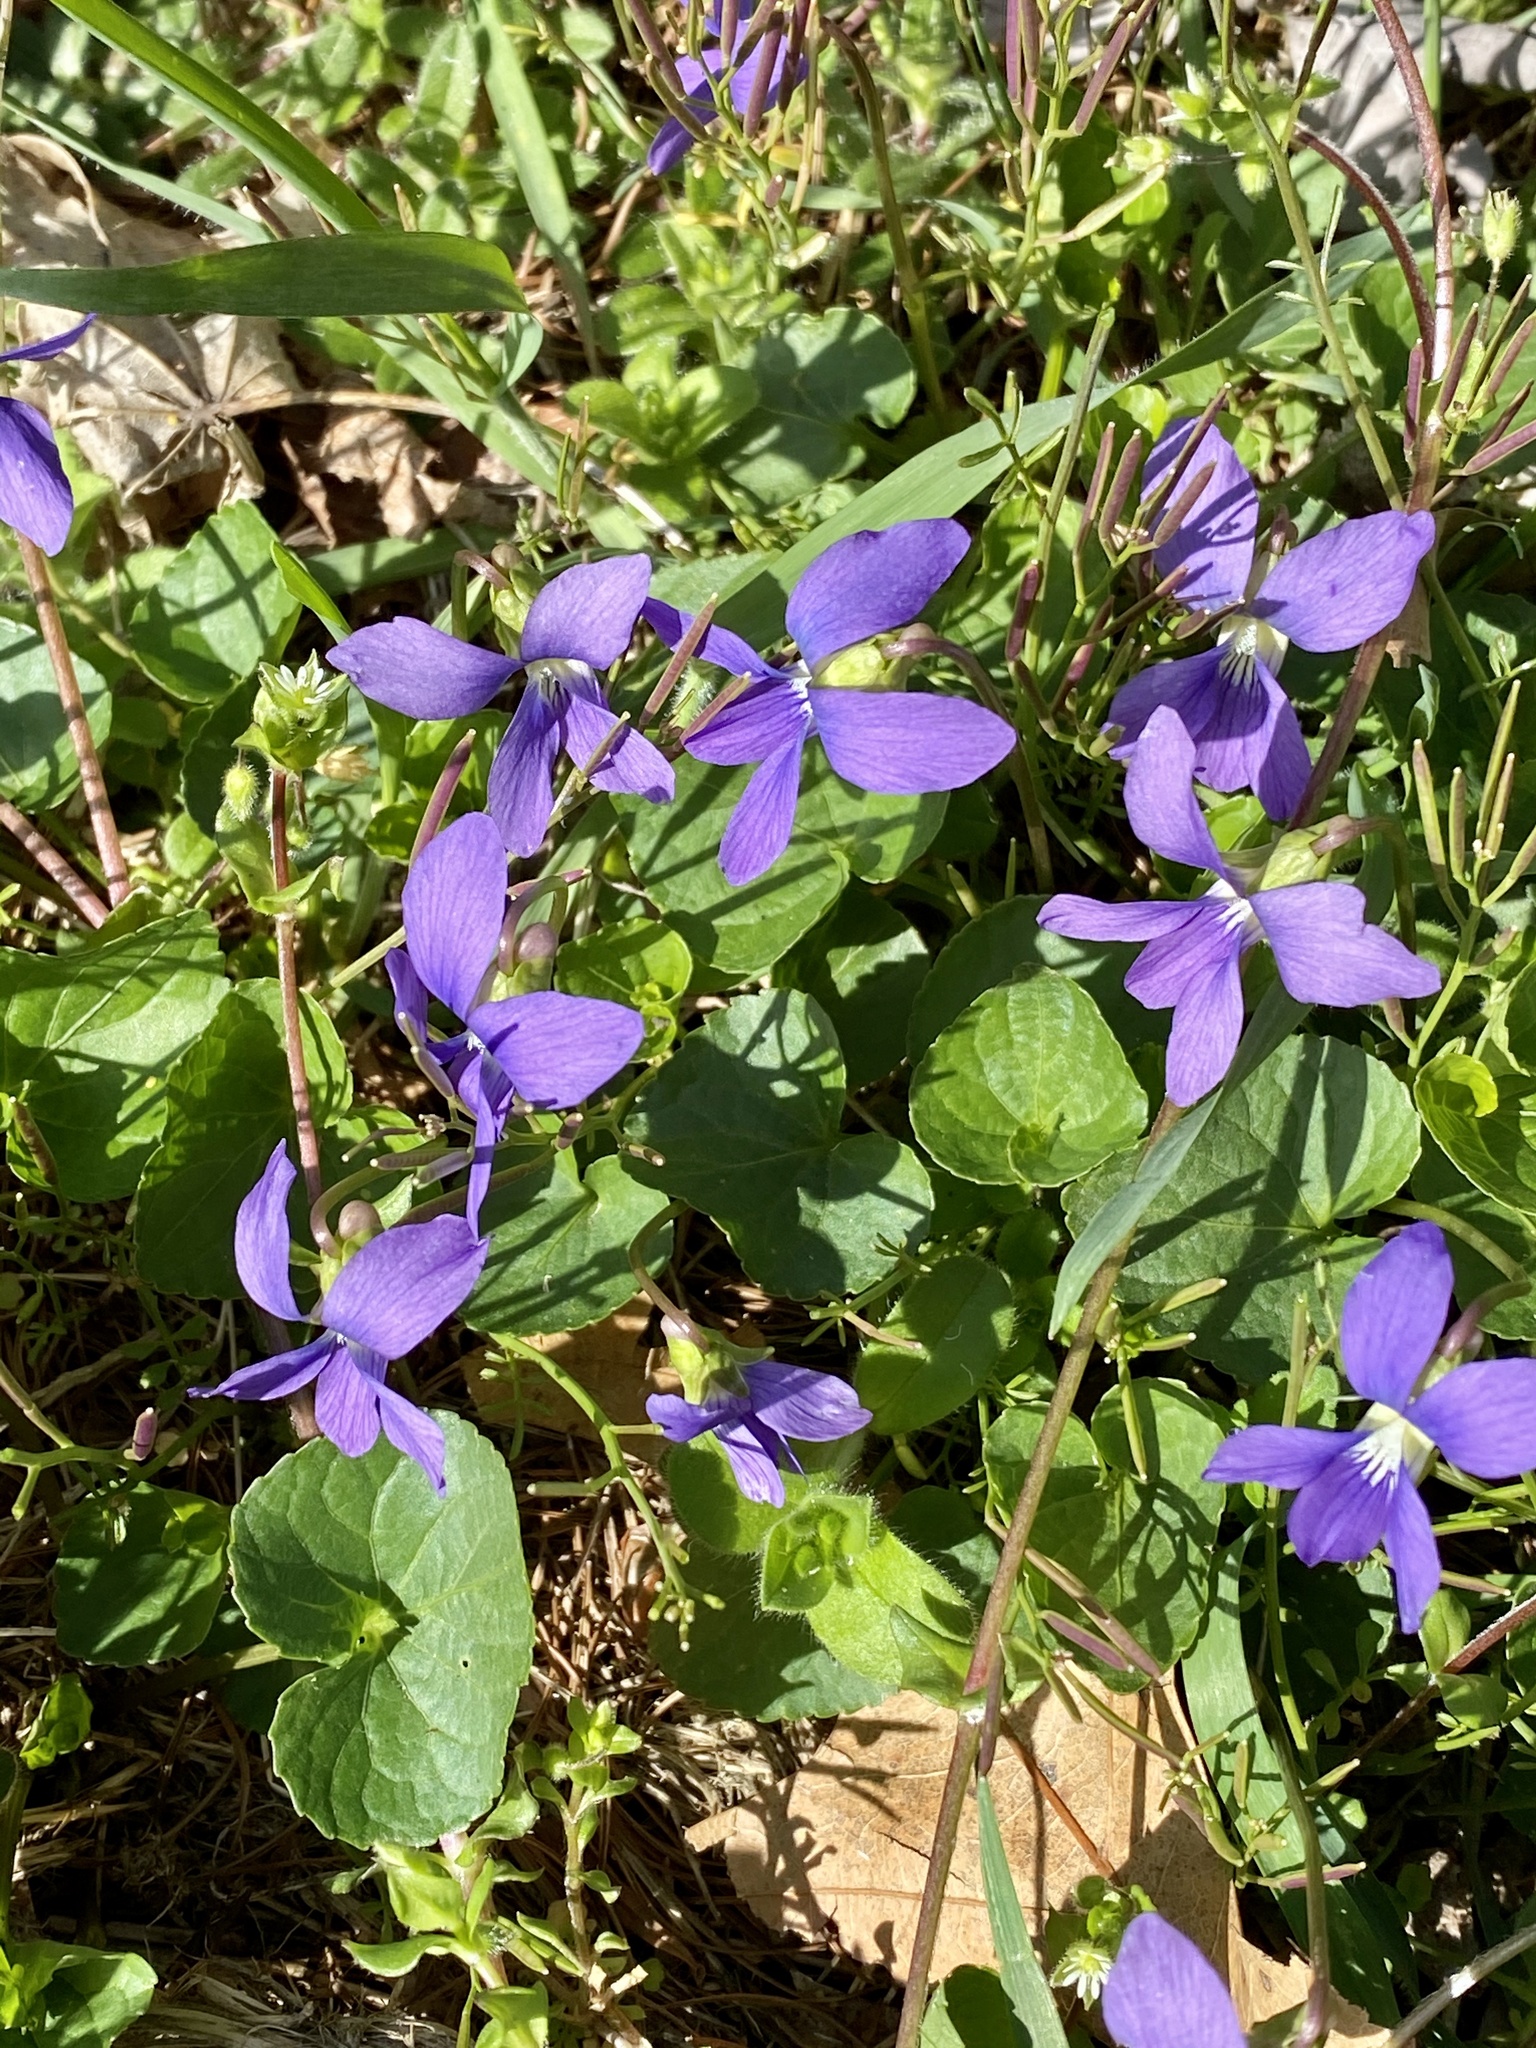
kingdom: Plantae
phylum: Tracheophyta
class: Magnoliopsida
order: Malpighiales
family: Violaceae
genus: Viola
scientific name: Viola sororia
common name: Dooryard violet
